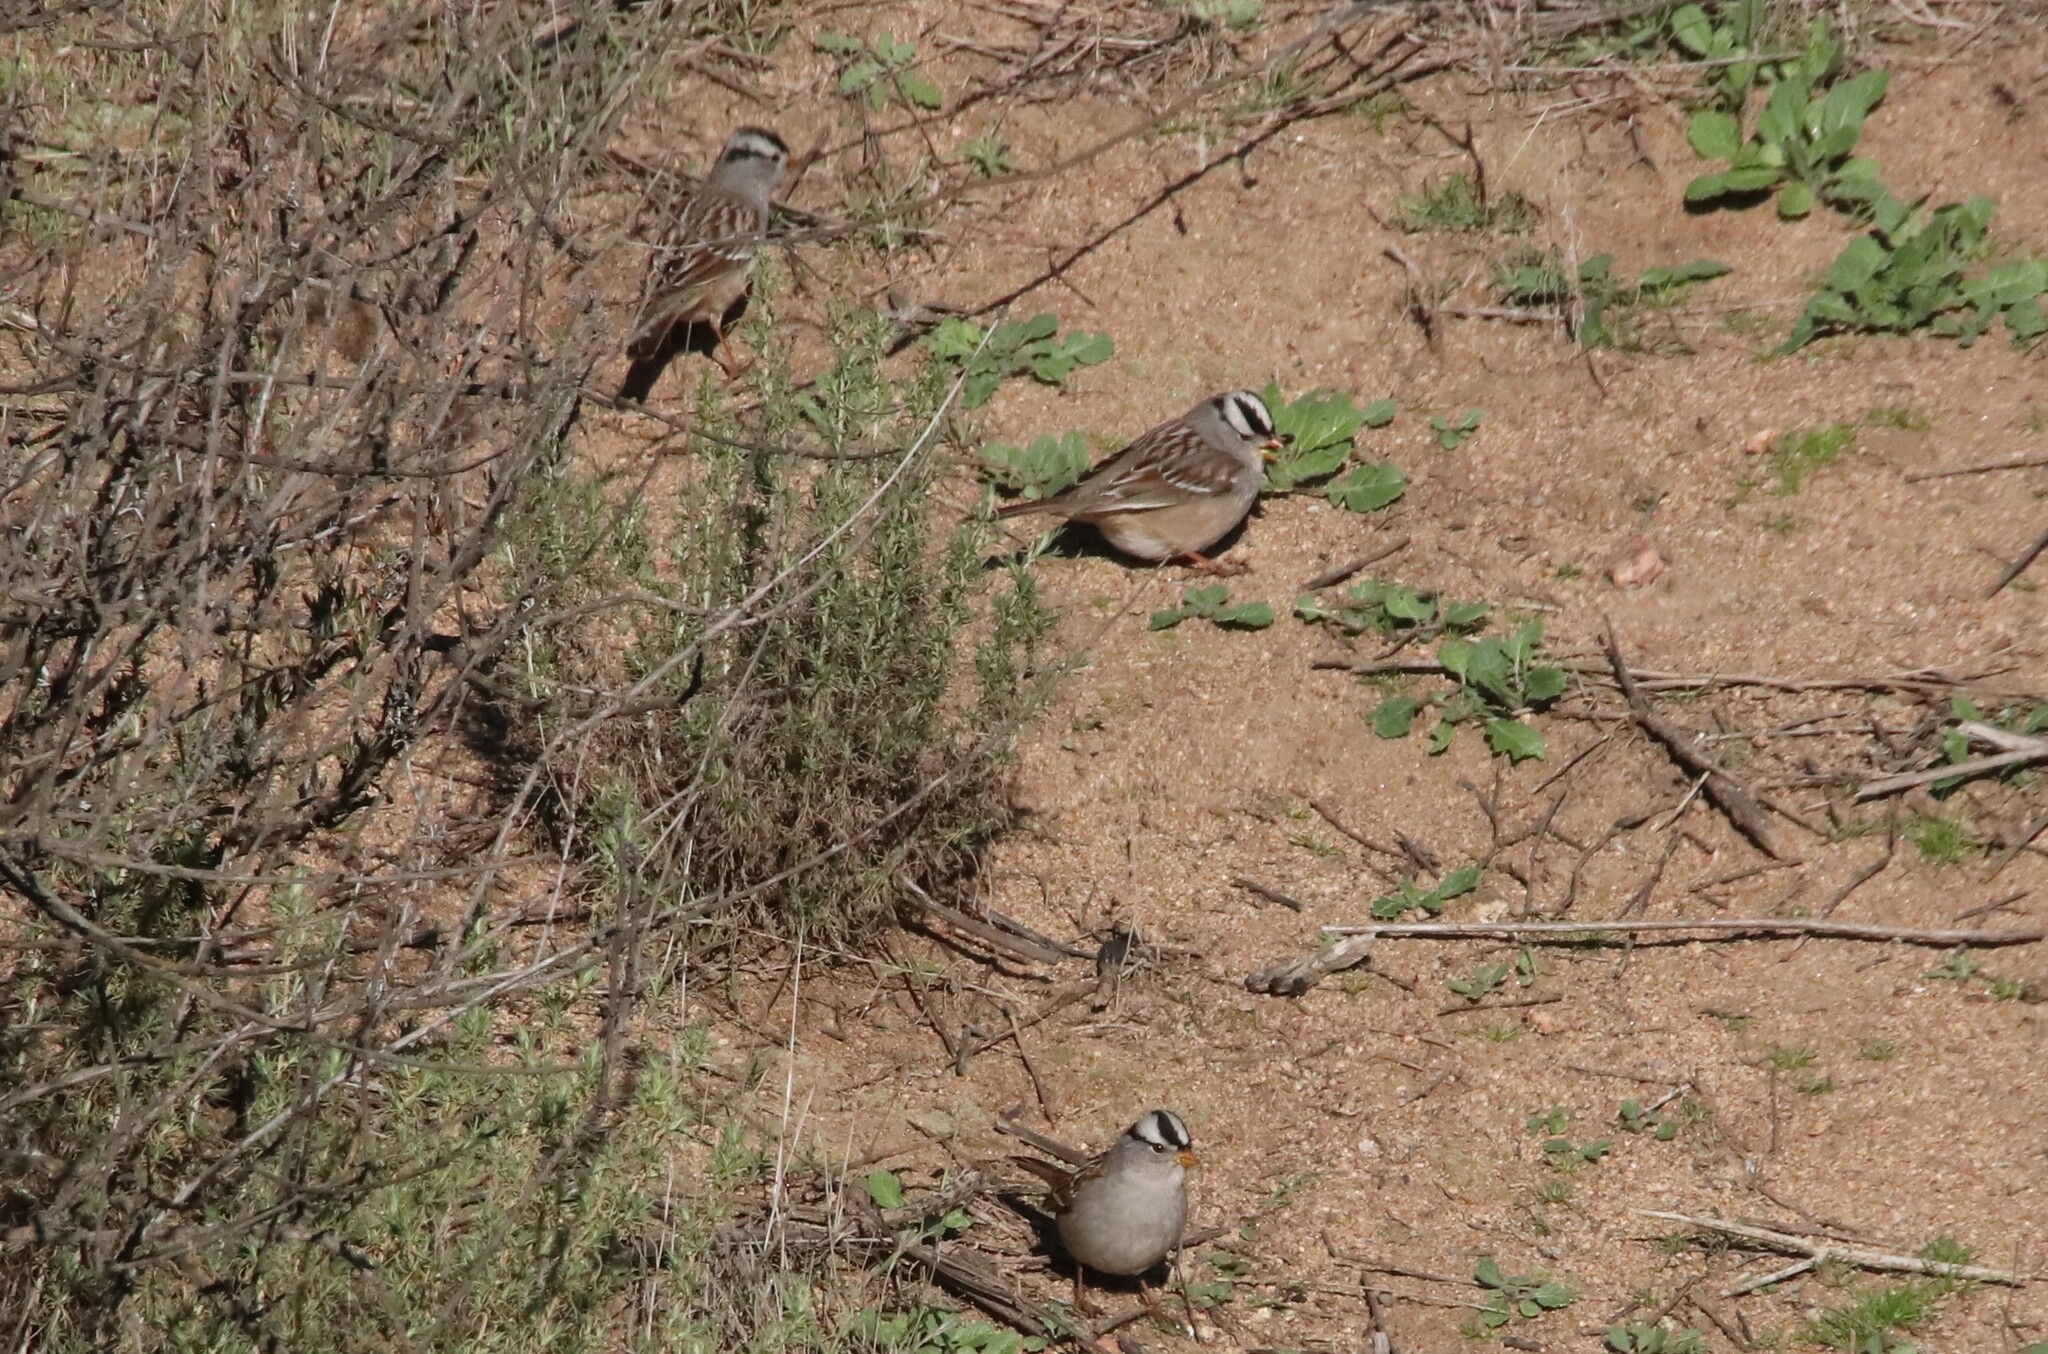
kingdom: Animalia
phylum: Chordata
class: Aves
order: Passeriformes
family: Passerellidae
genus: Zonotrichia
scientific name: Zonotrichia leucophrys
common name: White-crowned sparrow
